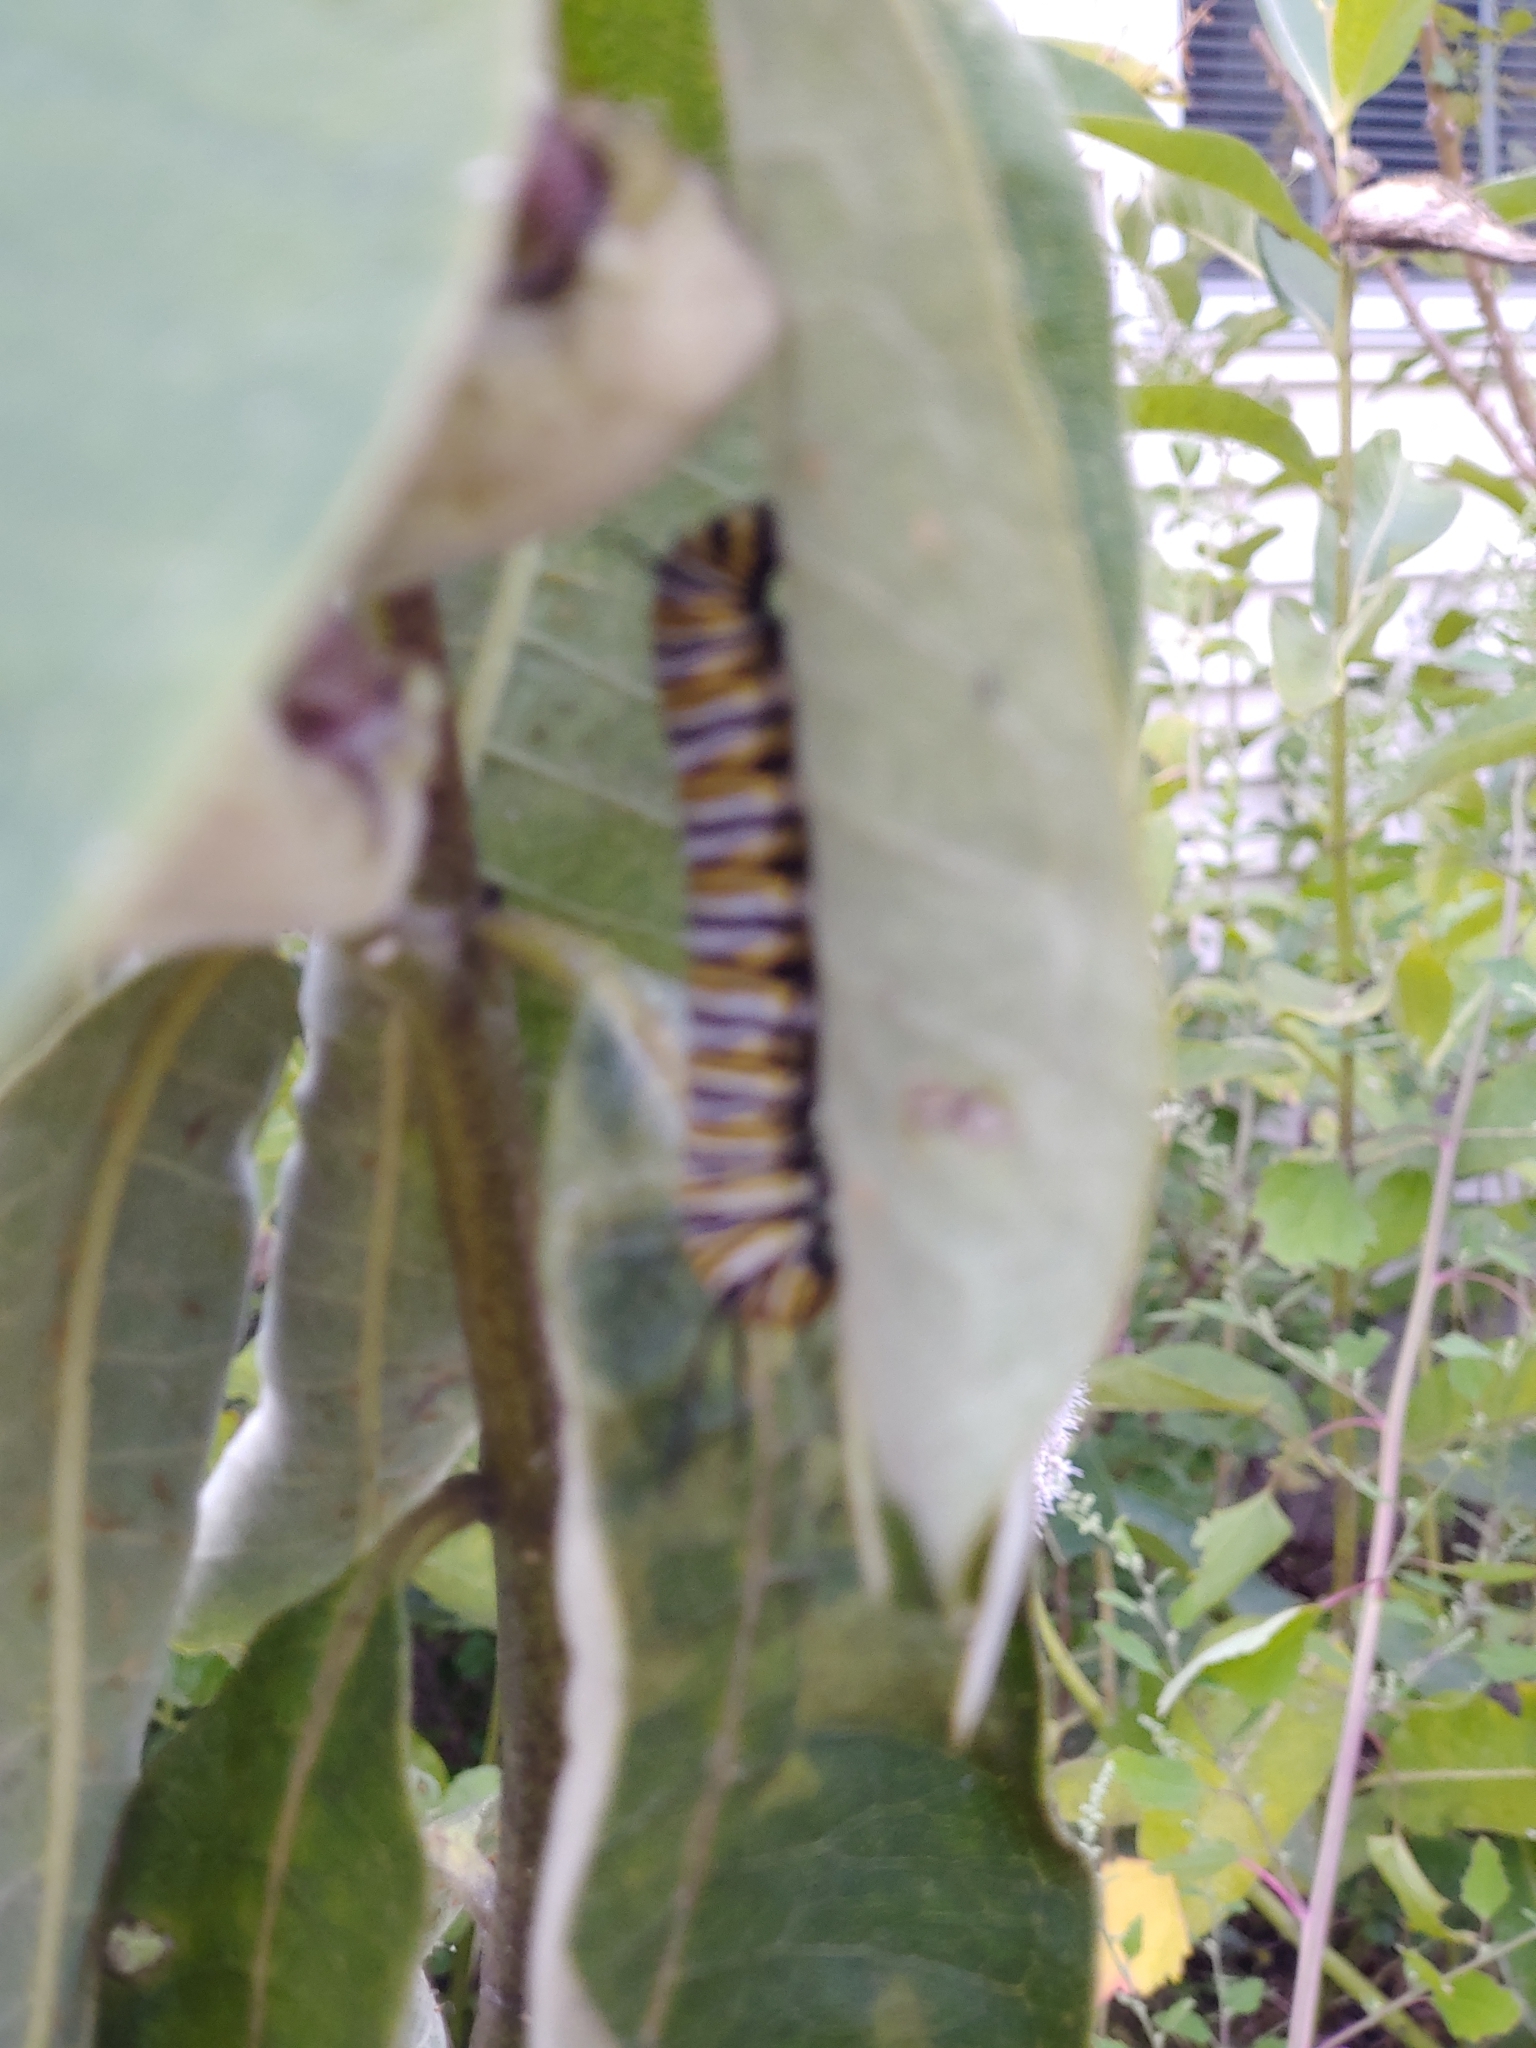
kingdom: Animalia
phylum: Arthropoda
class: Insecta
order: Lepidoptera
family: Nymphalidae
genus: Danaus
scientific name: Danaus plexippus
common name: Monarch
